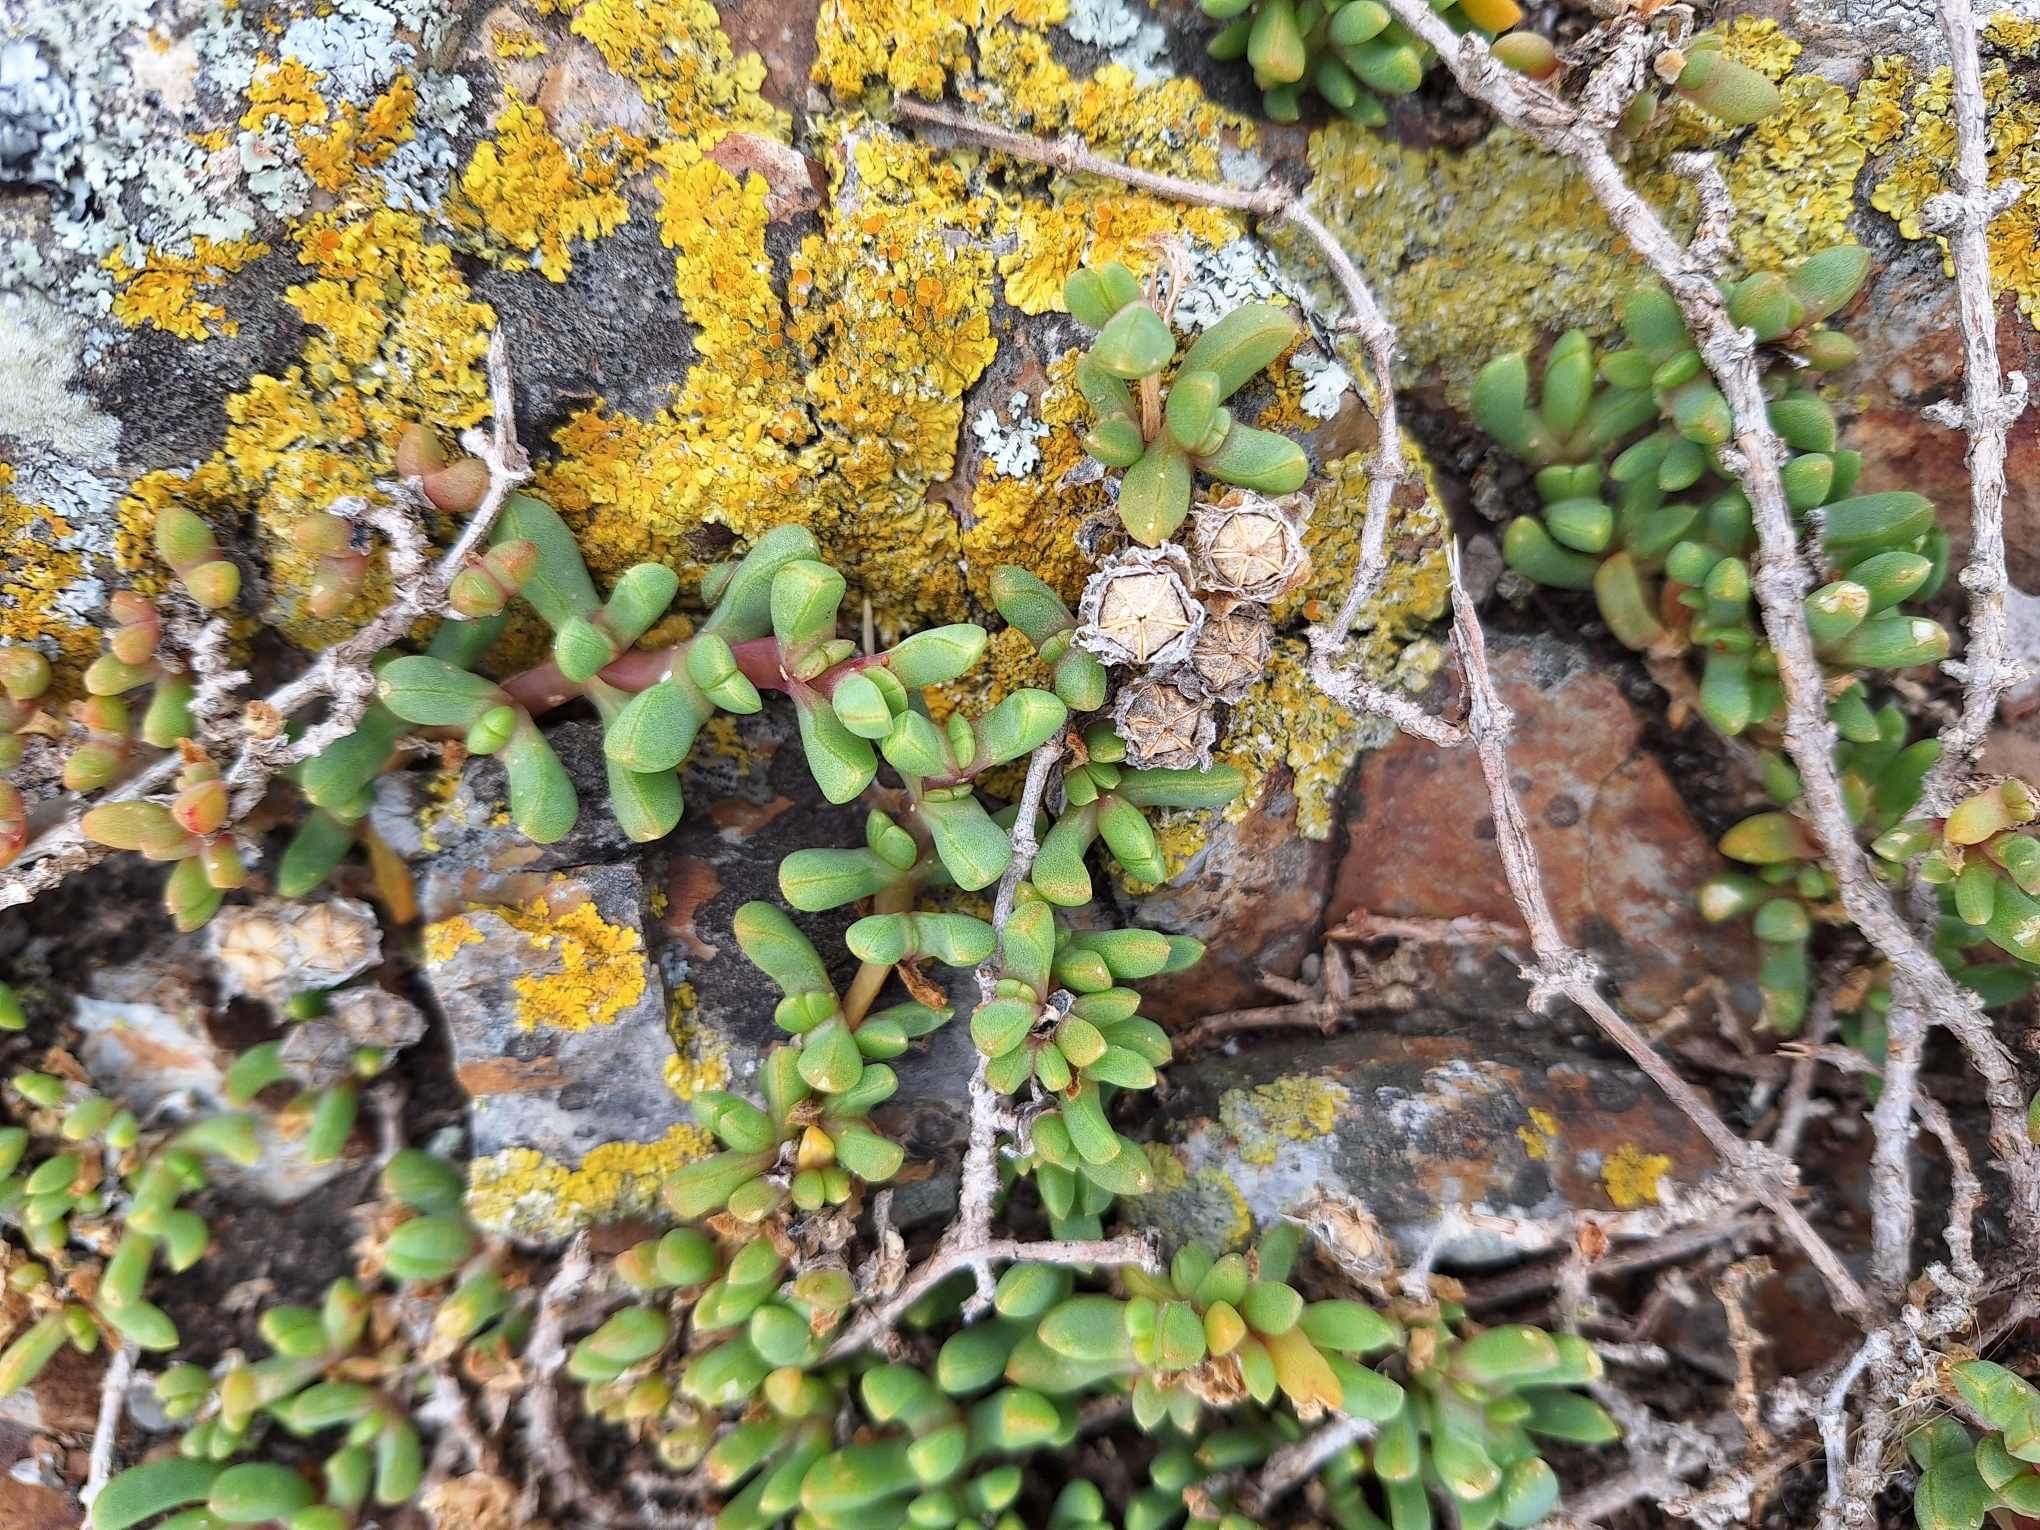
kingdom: Plantae
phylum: Tracheophyta
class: Magnoliopsida
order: Caryophyllales
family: Aizoaceae
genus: Disphyma
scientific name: Disphyma australe
